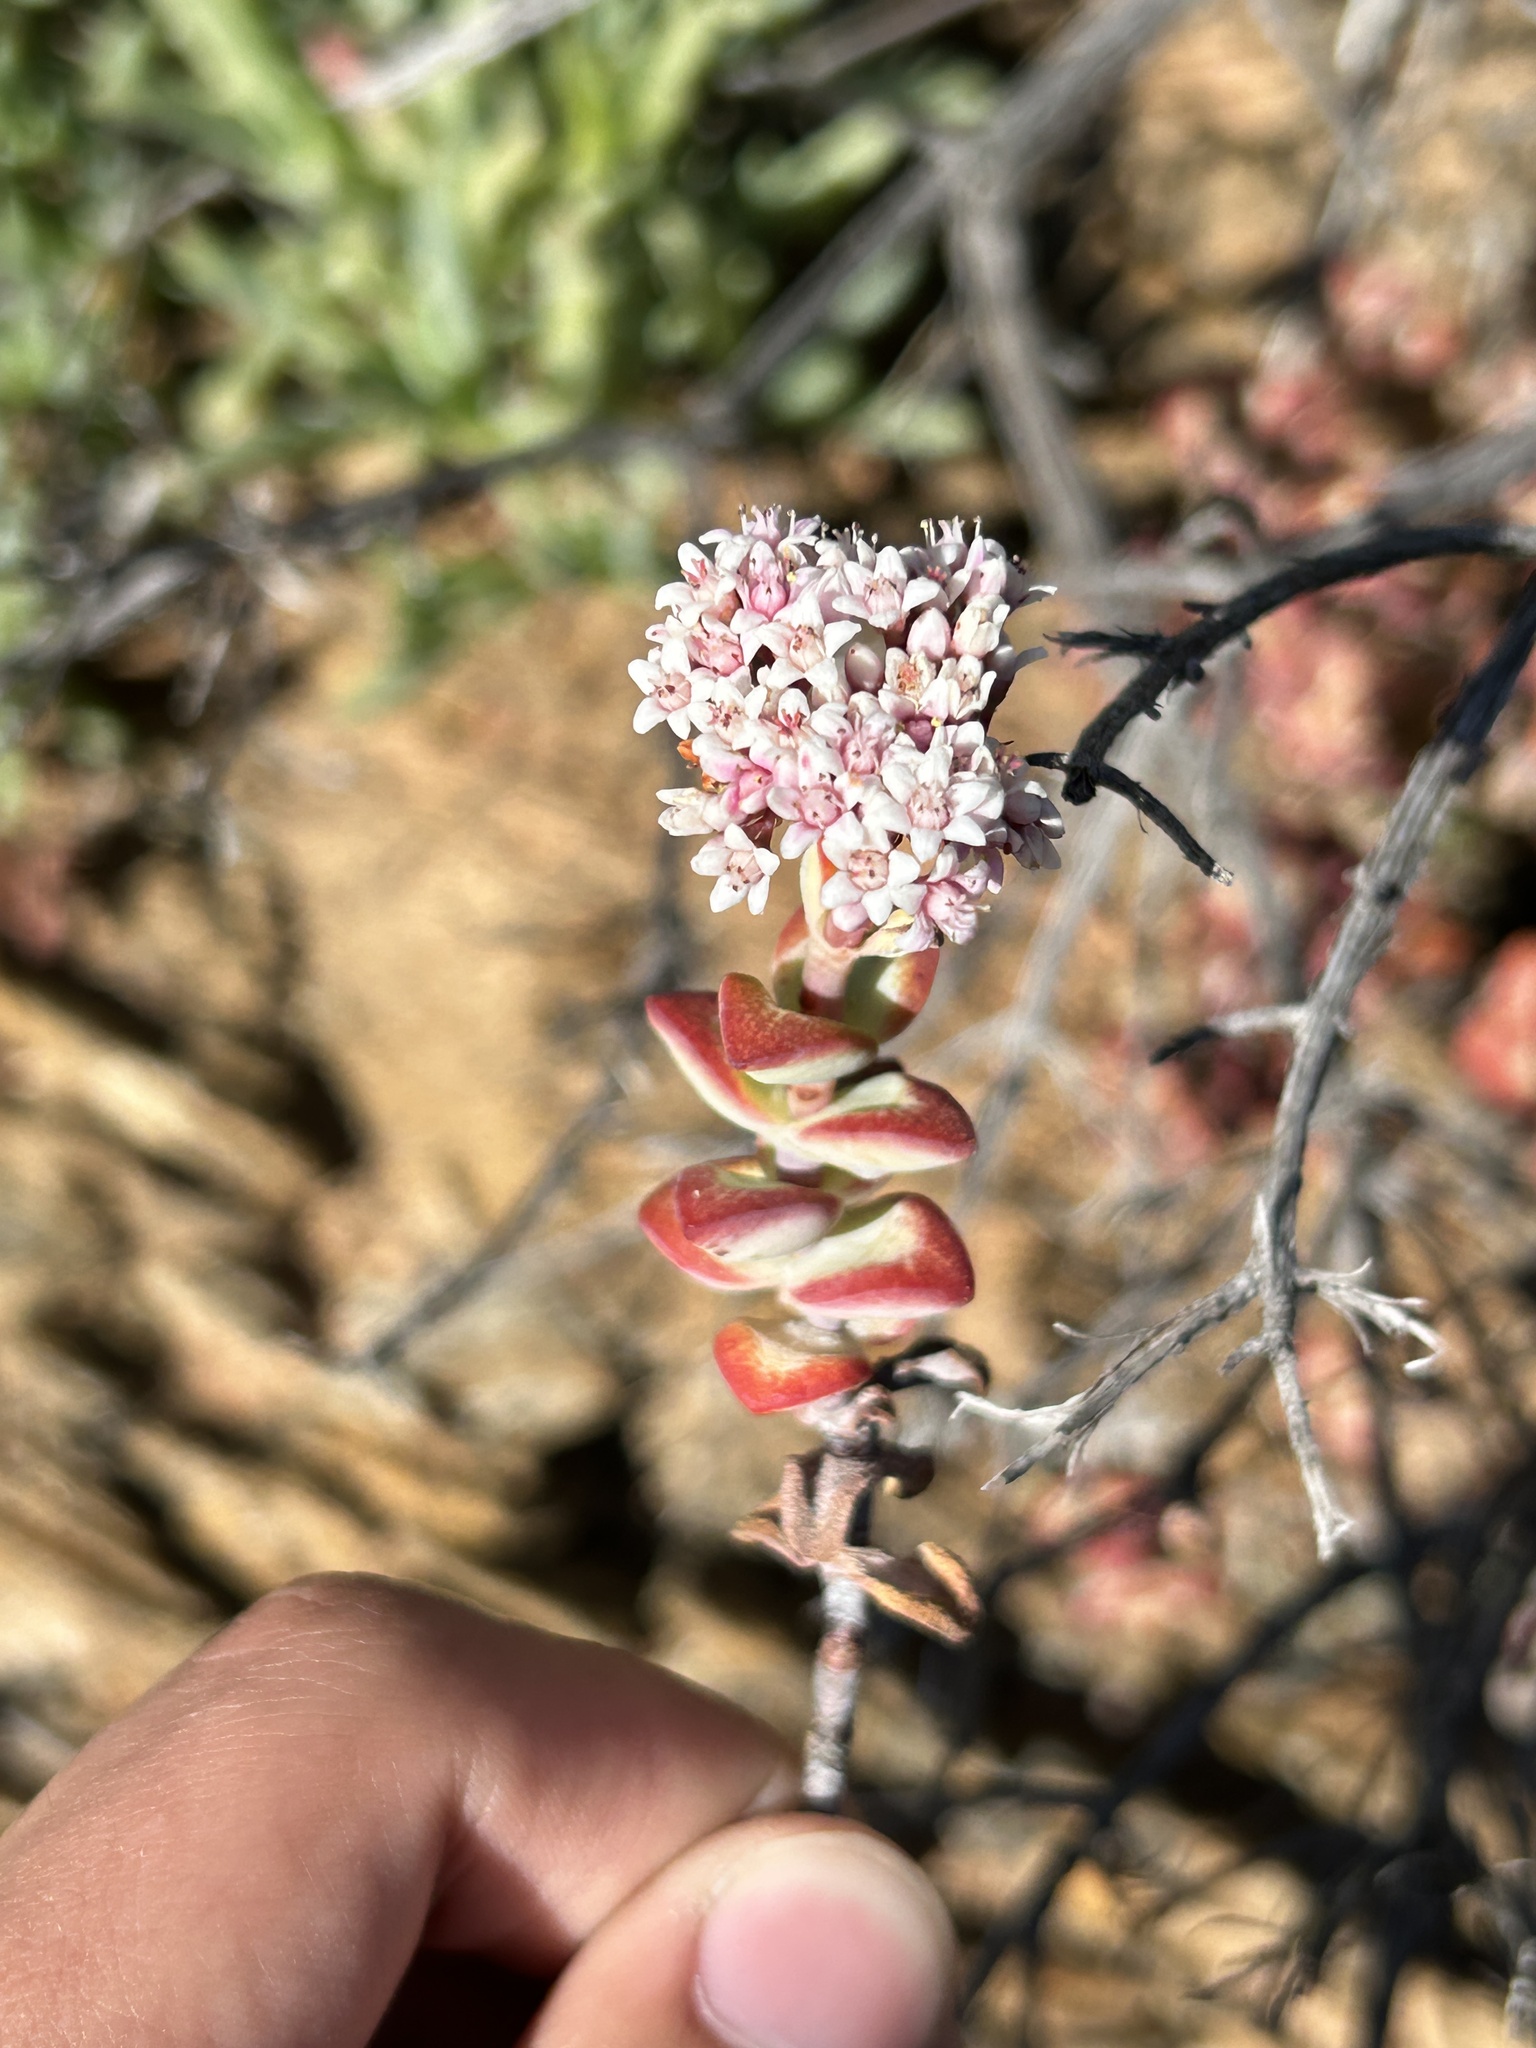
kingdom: Plantae
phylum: Tracheophyta
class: Magnoliopsida
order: Saxifragales
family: Crassulaceae
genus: Crassula
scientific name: Crassula rupestris
